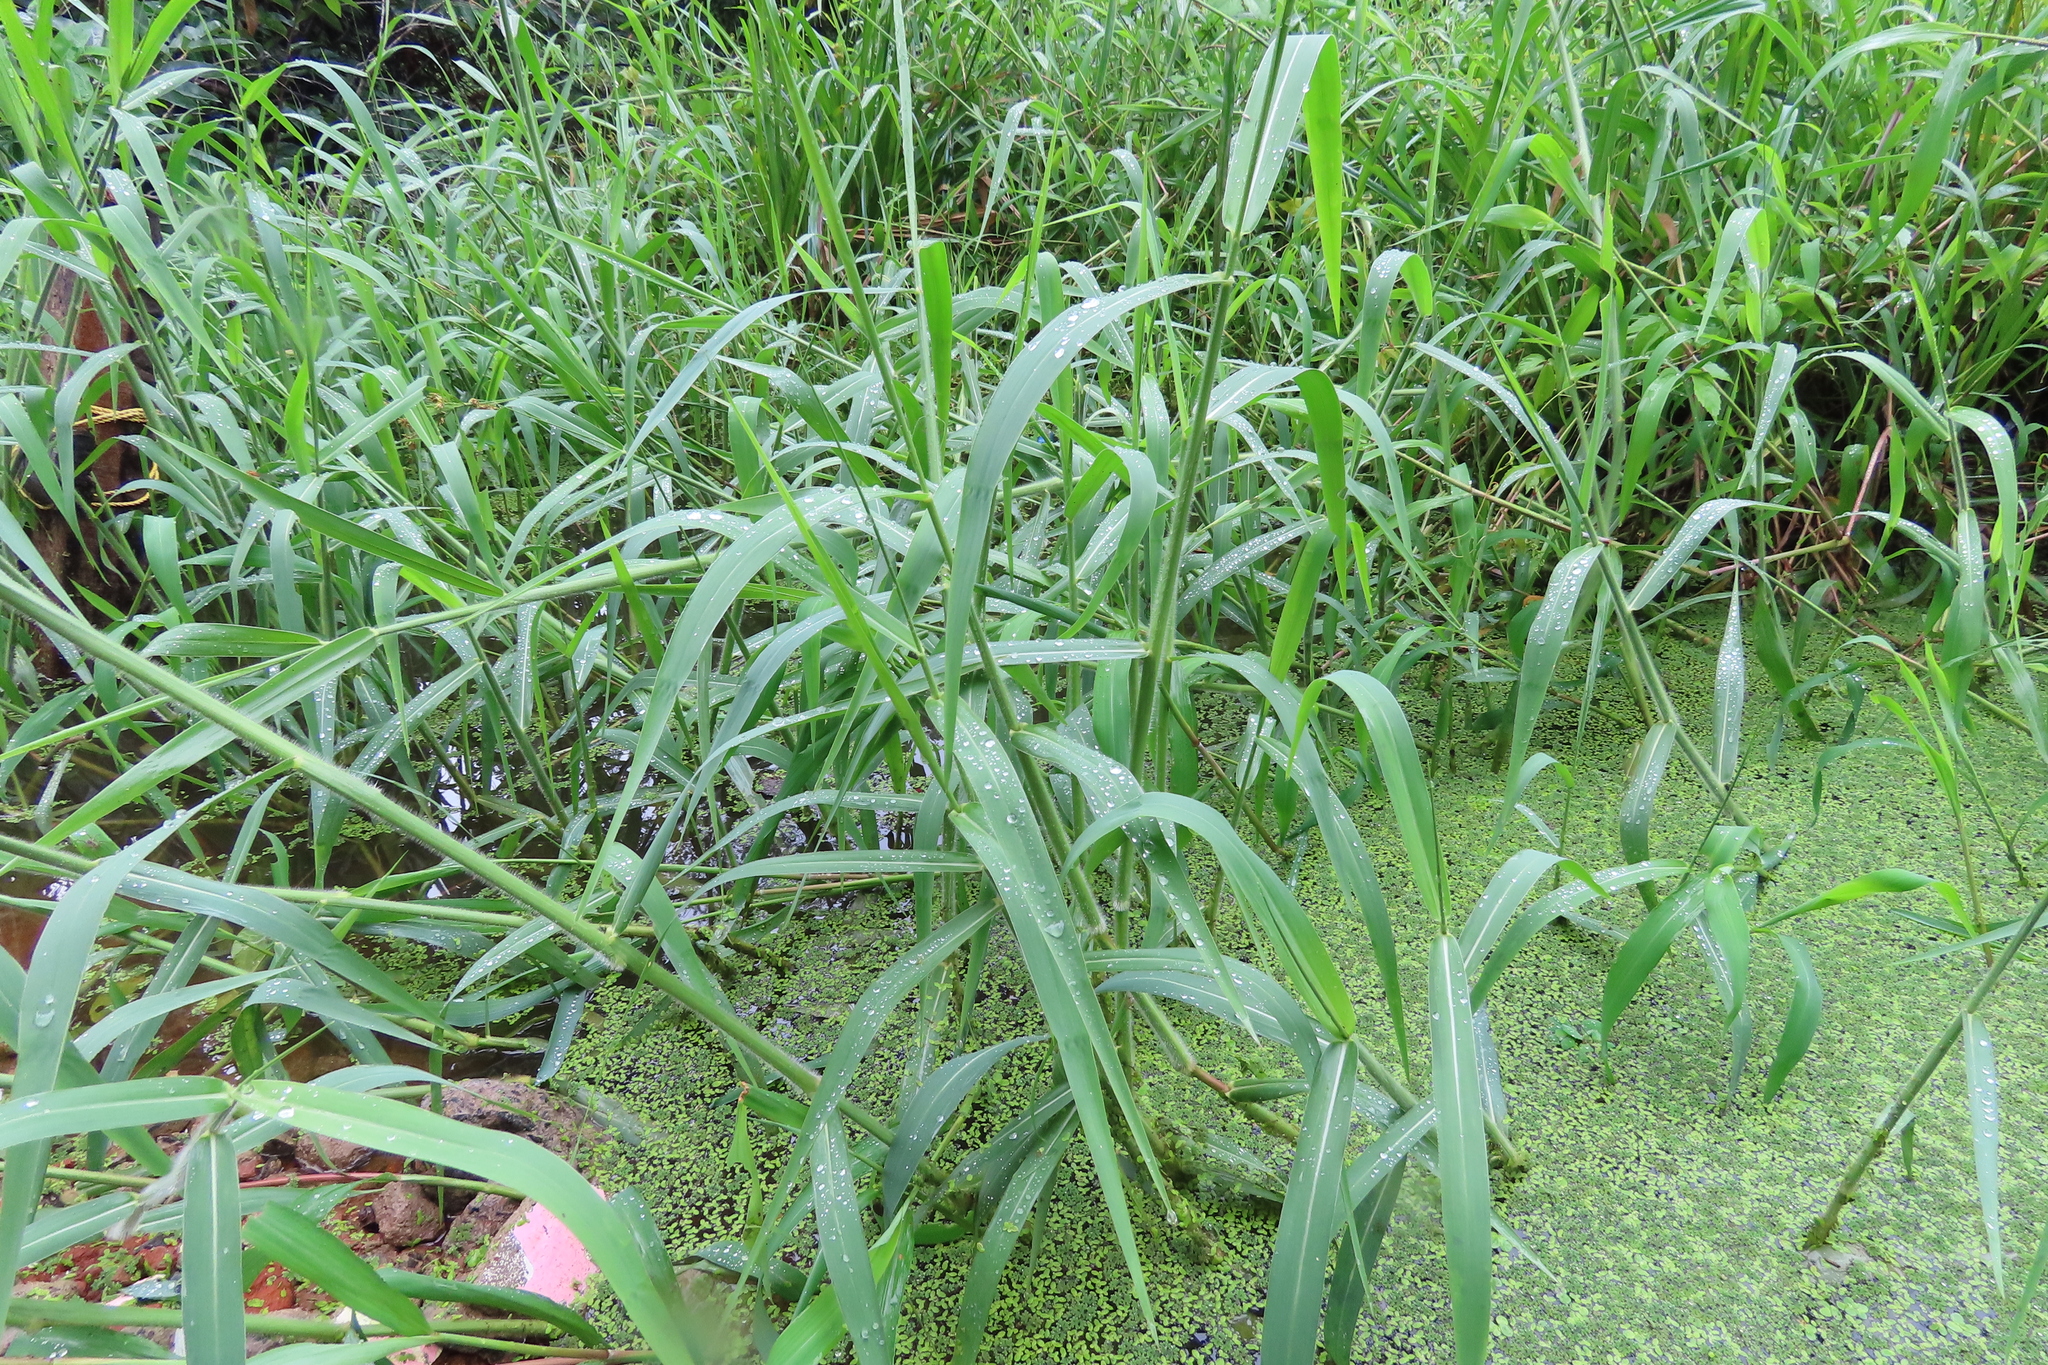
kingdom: Plantae
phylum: Tracheophyta
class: Liliopsida
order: Poales
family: Poaceae
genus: Urochloa
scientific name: Urochloa mutica
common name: Para grass
